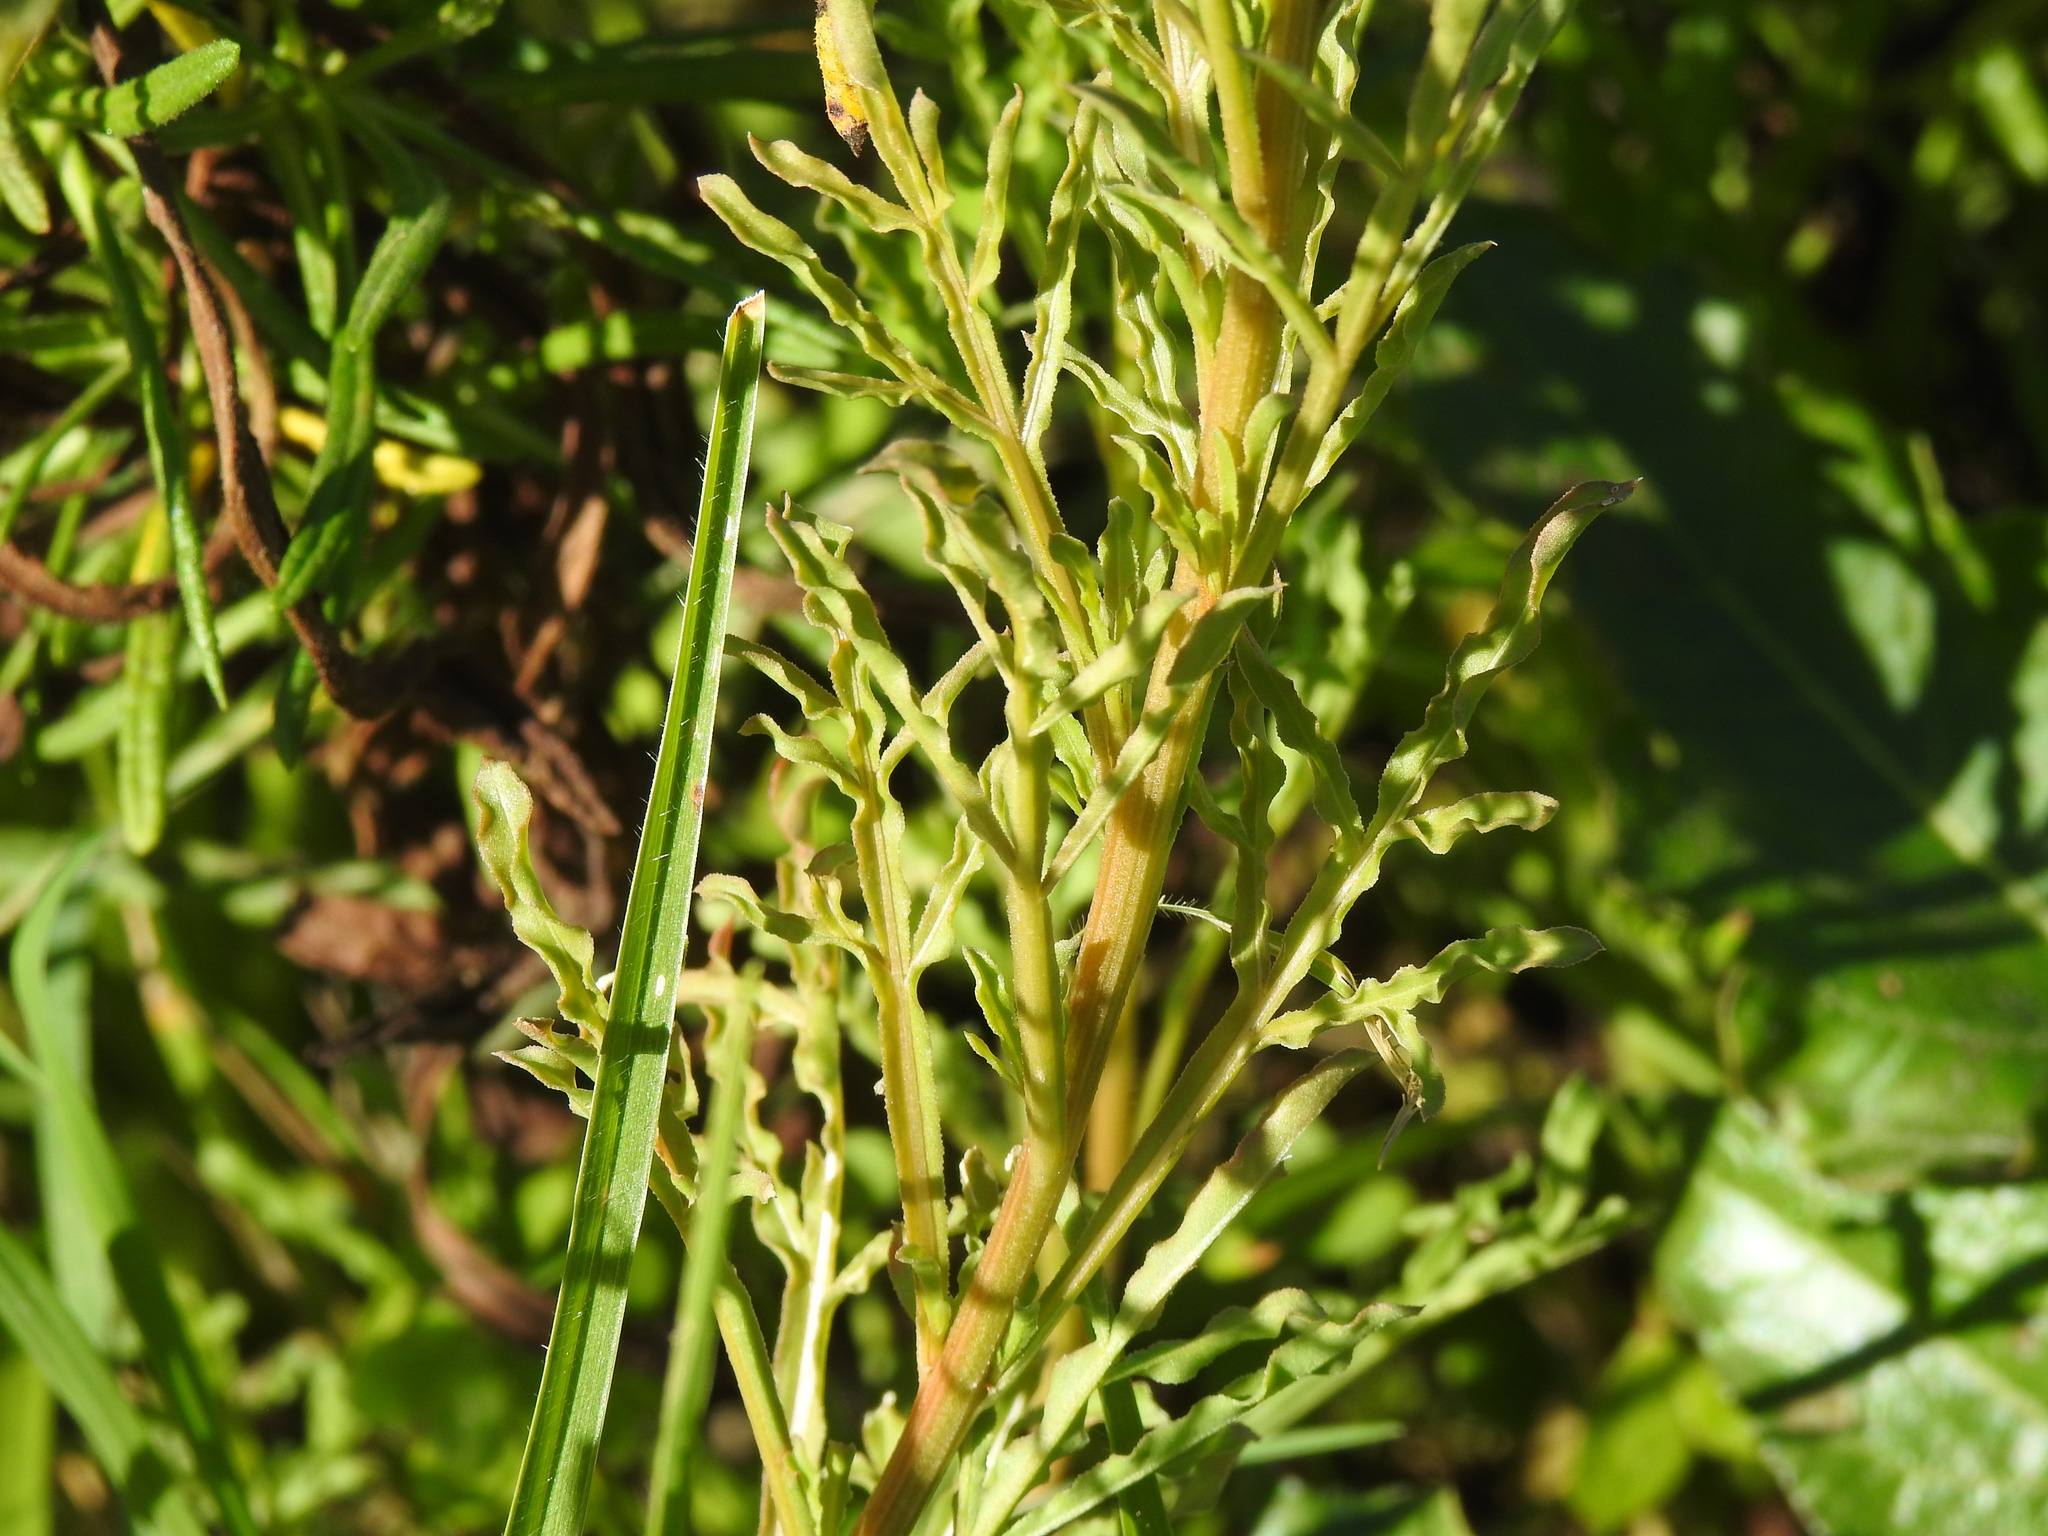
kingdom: Plantae
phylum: Tracheophyta
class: Magnoliopsida
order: Brassicales
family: Resedaceae
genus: Reseda
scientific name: Reseda lutea
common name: Wild mignonette
